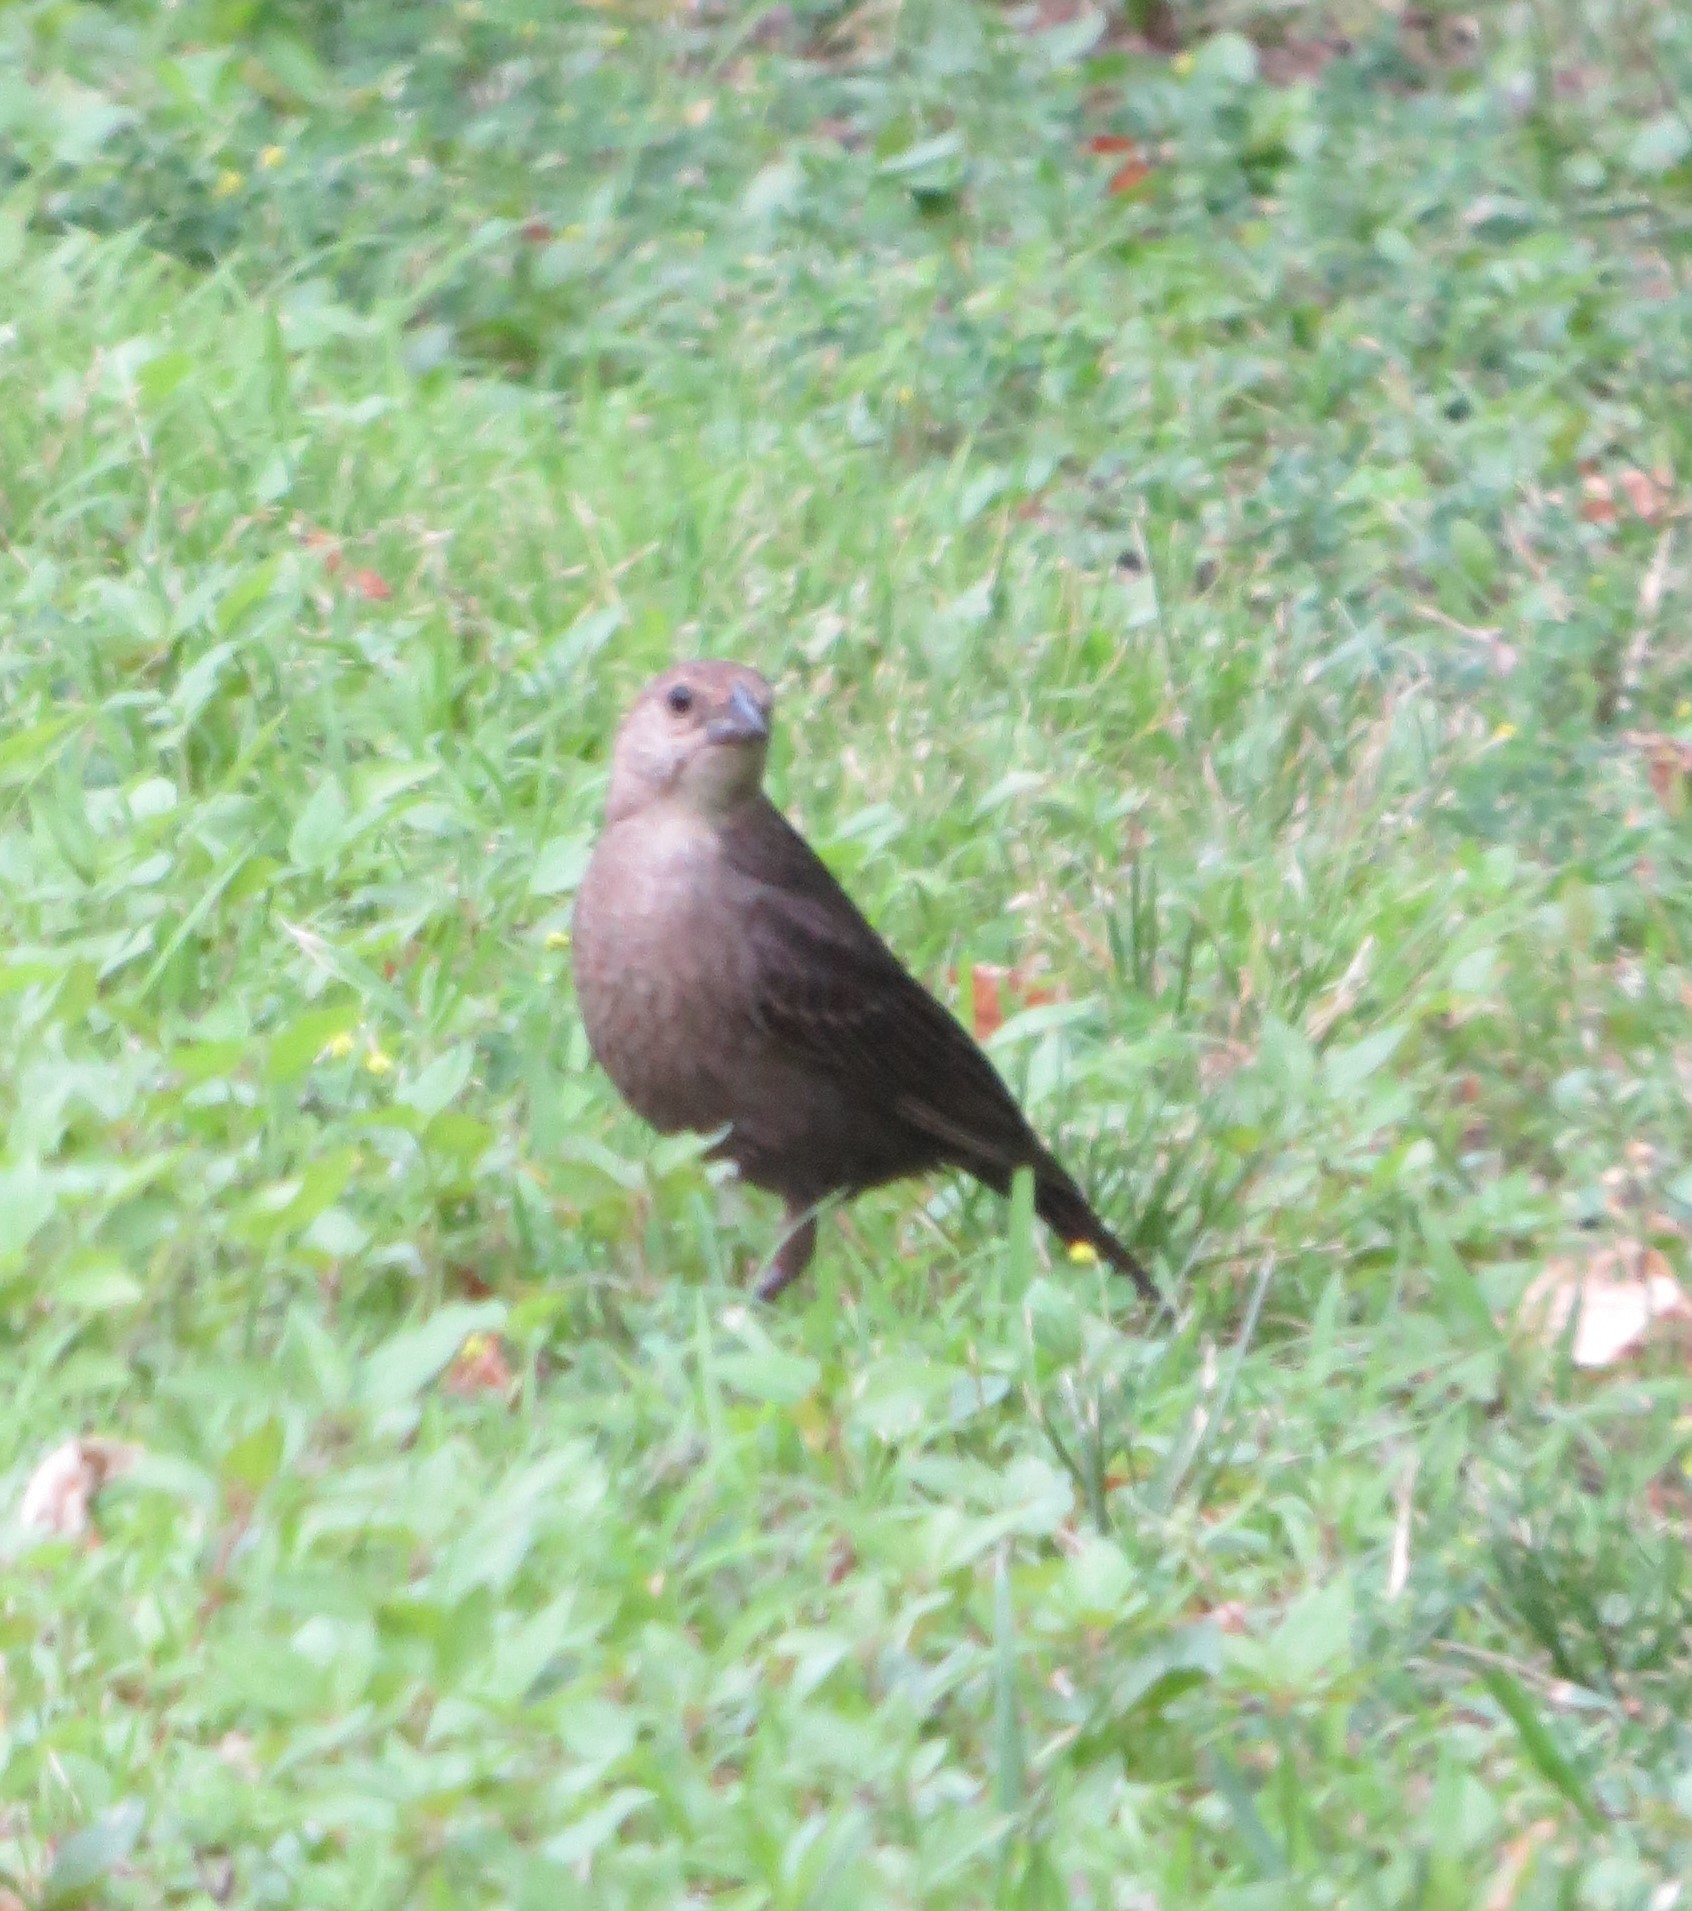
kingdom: Animalia
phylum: Chordata
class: Aves
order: Passeriformes
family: Icteridae
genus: Molothrus
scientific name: Molothrus ater
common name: Brown-headed cowbird
